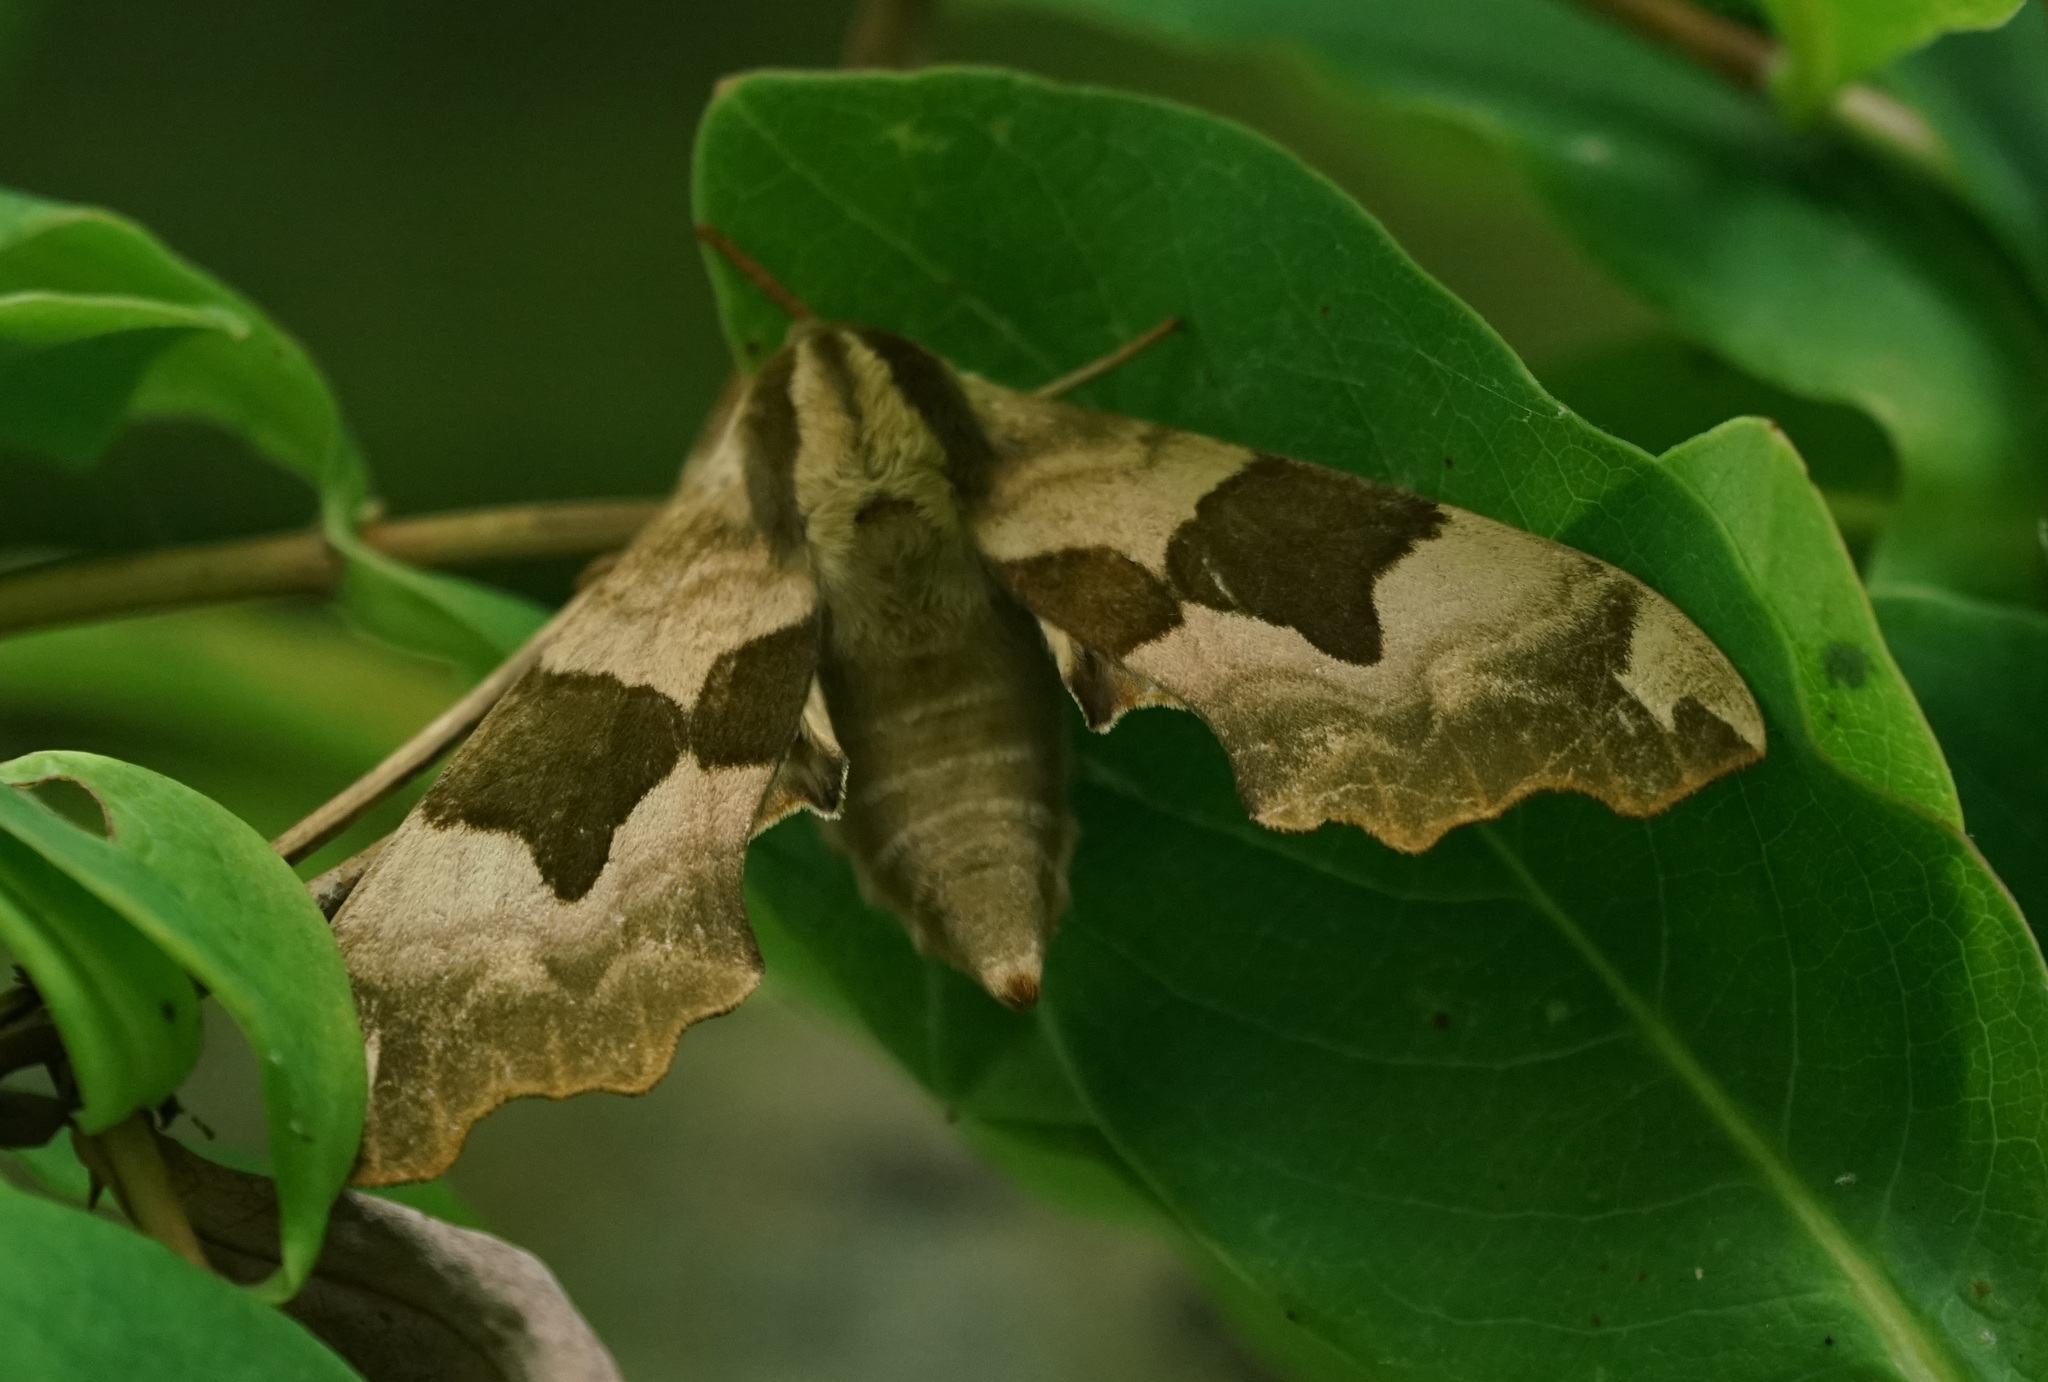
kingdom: Animalia
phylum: Arthropoda
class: Insecta
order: Lepidoptera
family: Sphingidae
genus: Mimas
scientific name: Mimas tiliae
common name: Lime hawk-moth
